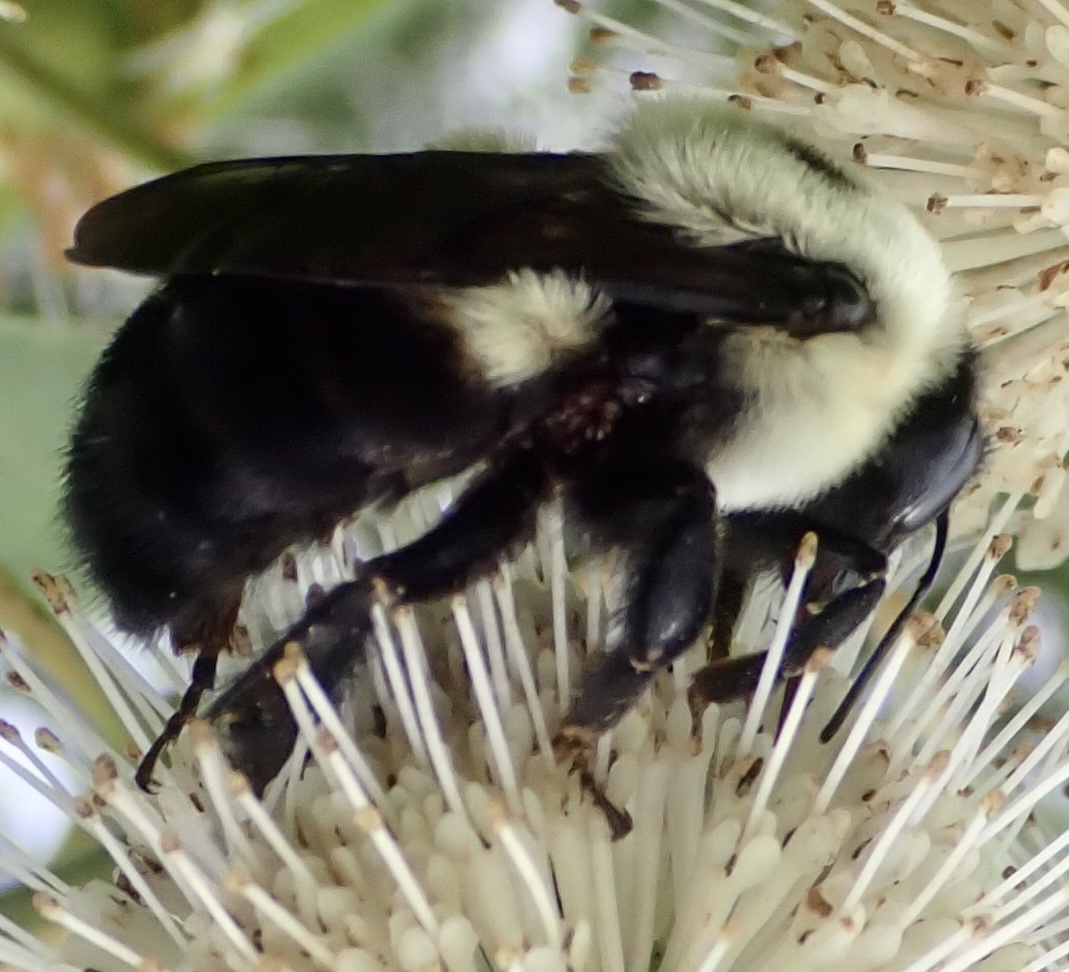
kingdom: Animalia
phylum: Arthropoda
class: Insecta
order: Hymenoptera
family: Apidae
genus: Bombus
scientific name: Bombus griseocollis
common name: Brown-belted bumble bee
